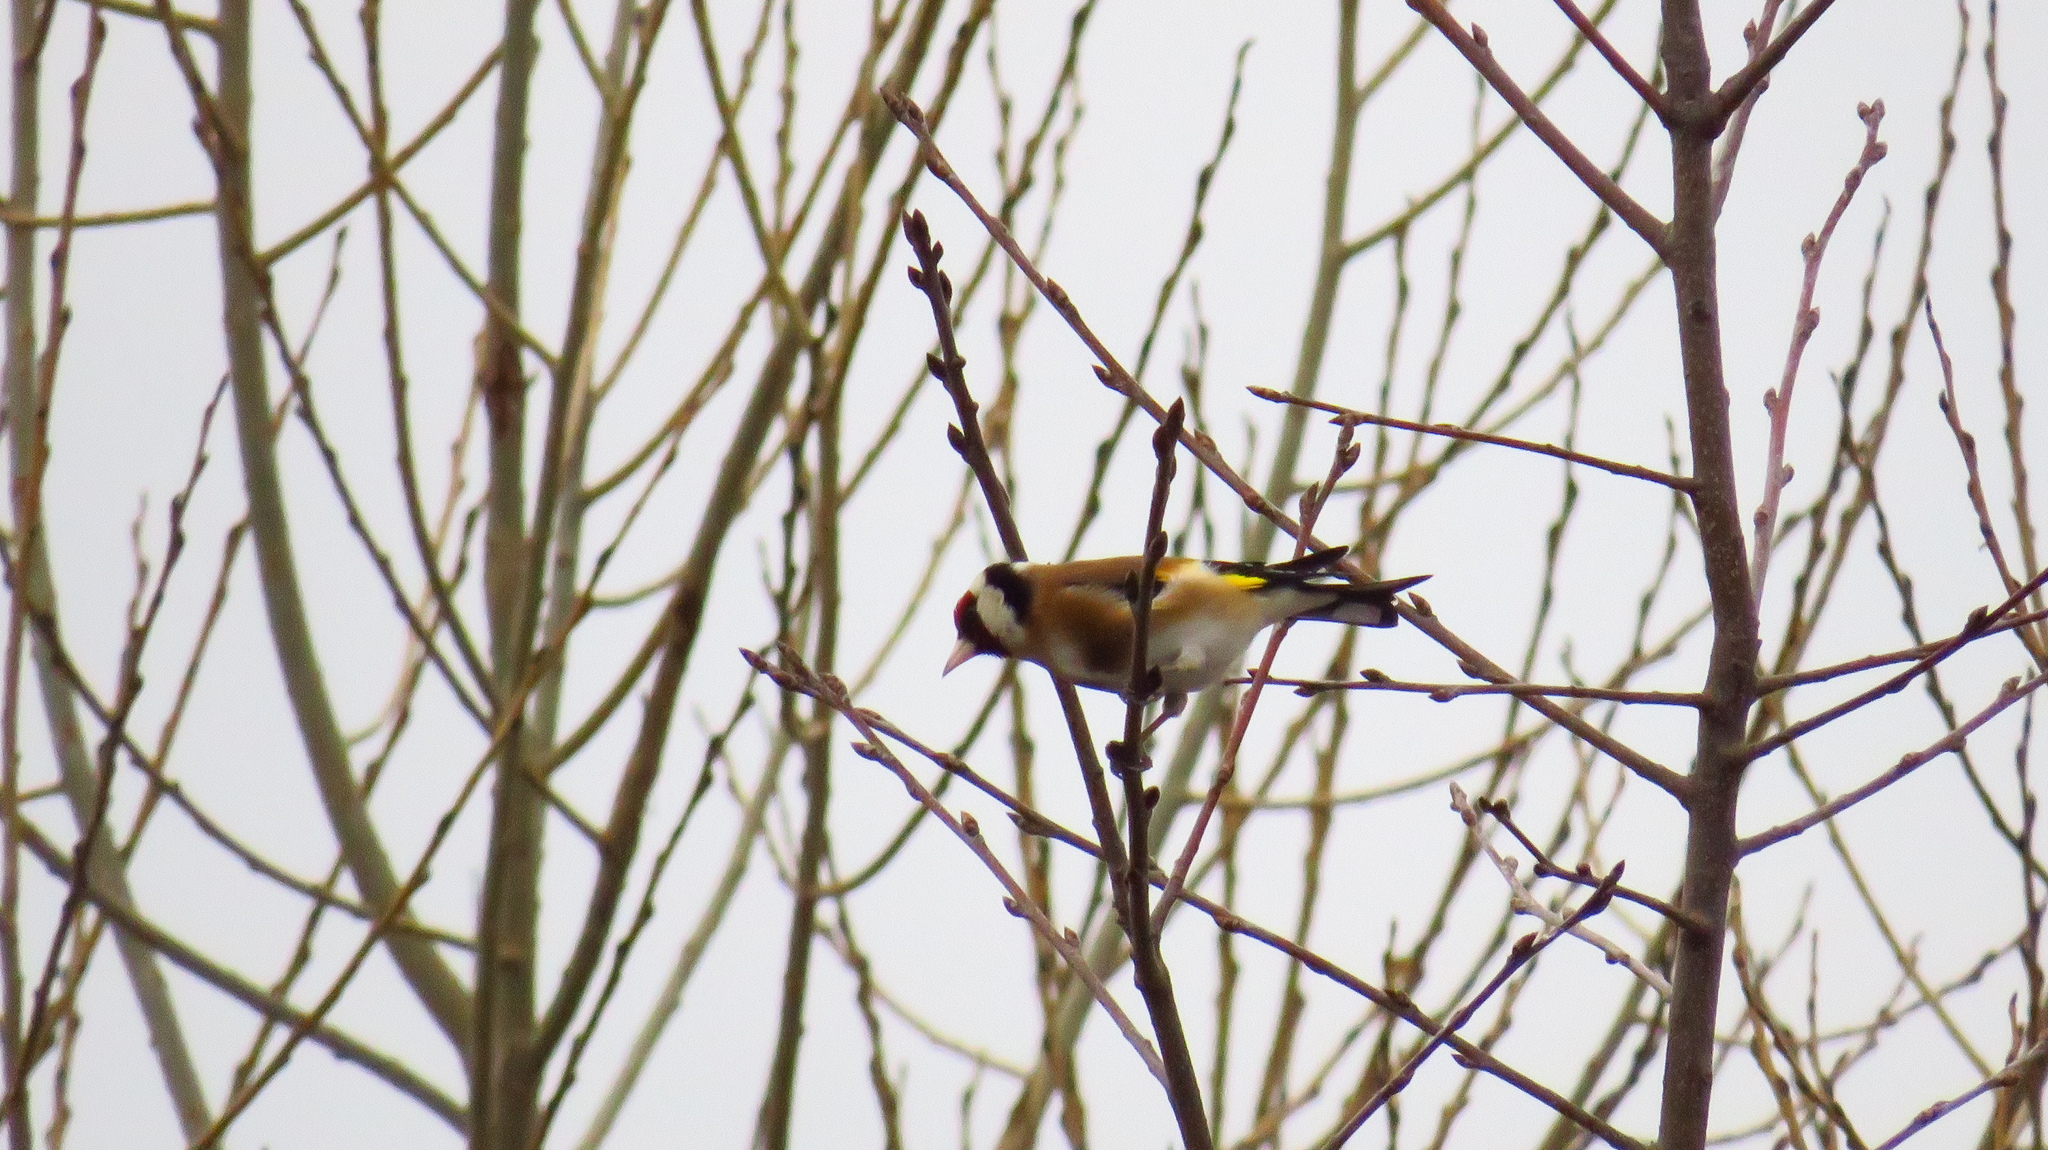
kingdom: Animalia
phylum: Chordata
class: Aves
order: Passeriformes
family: Fringillidae
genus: Carduelis
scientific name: Carduelis carduelis
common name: European goldfinch
